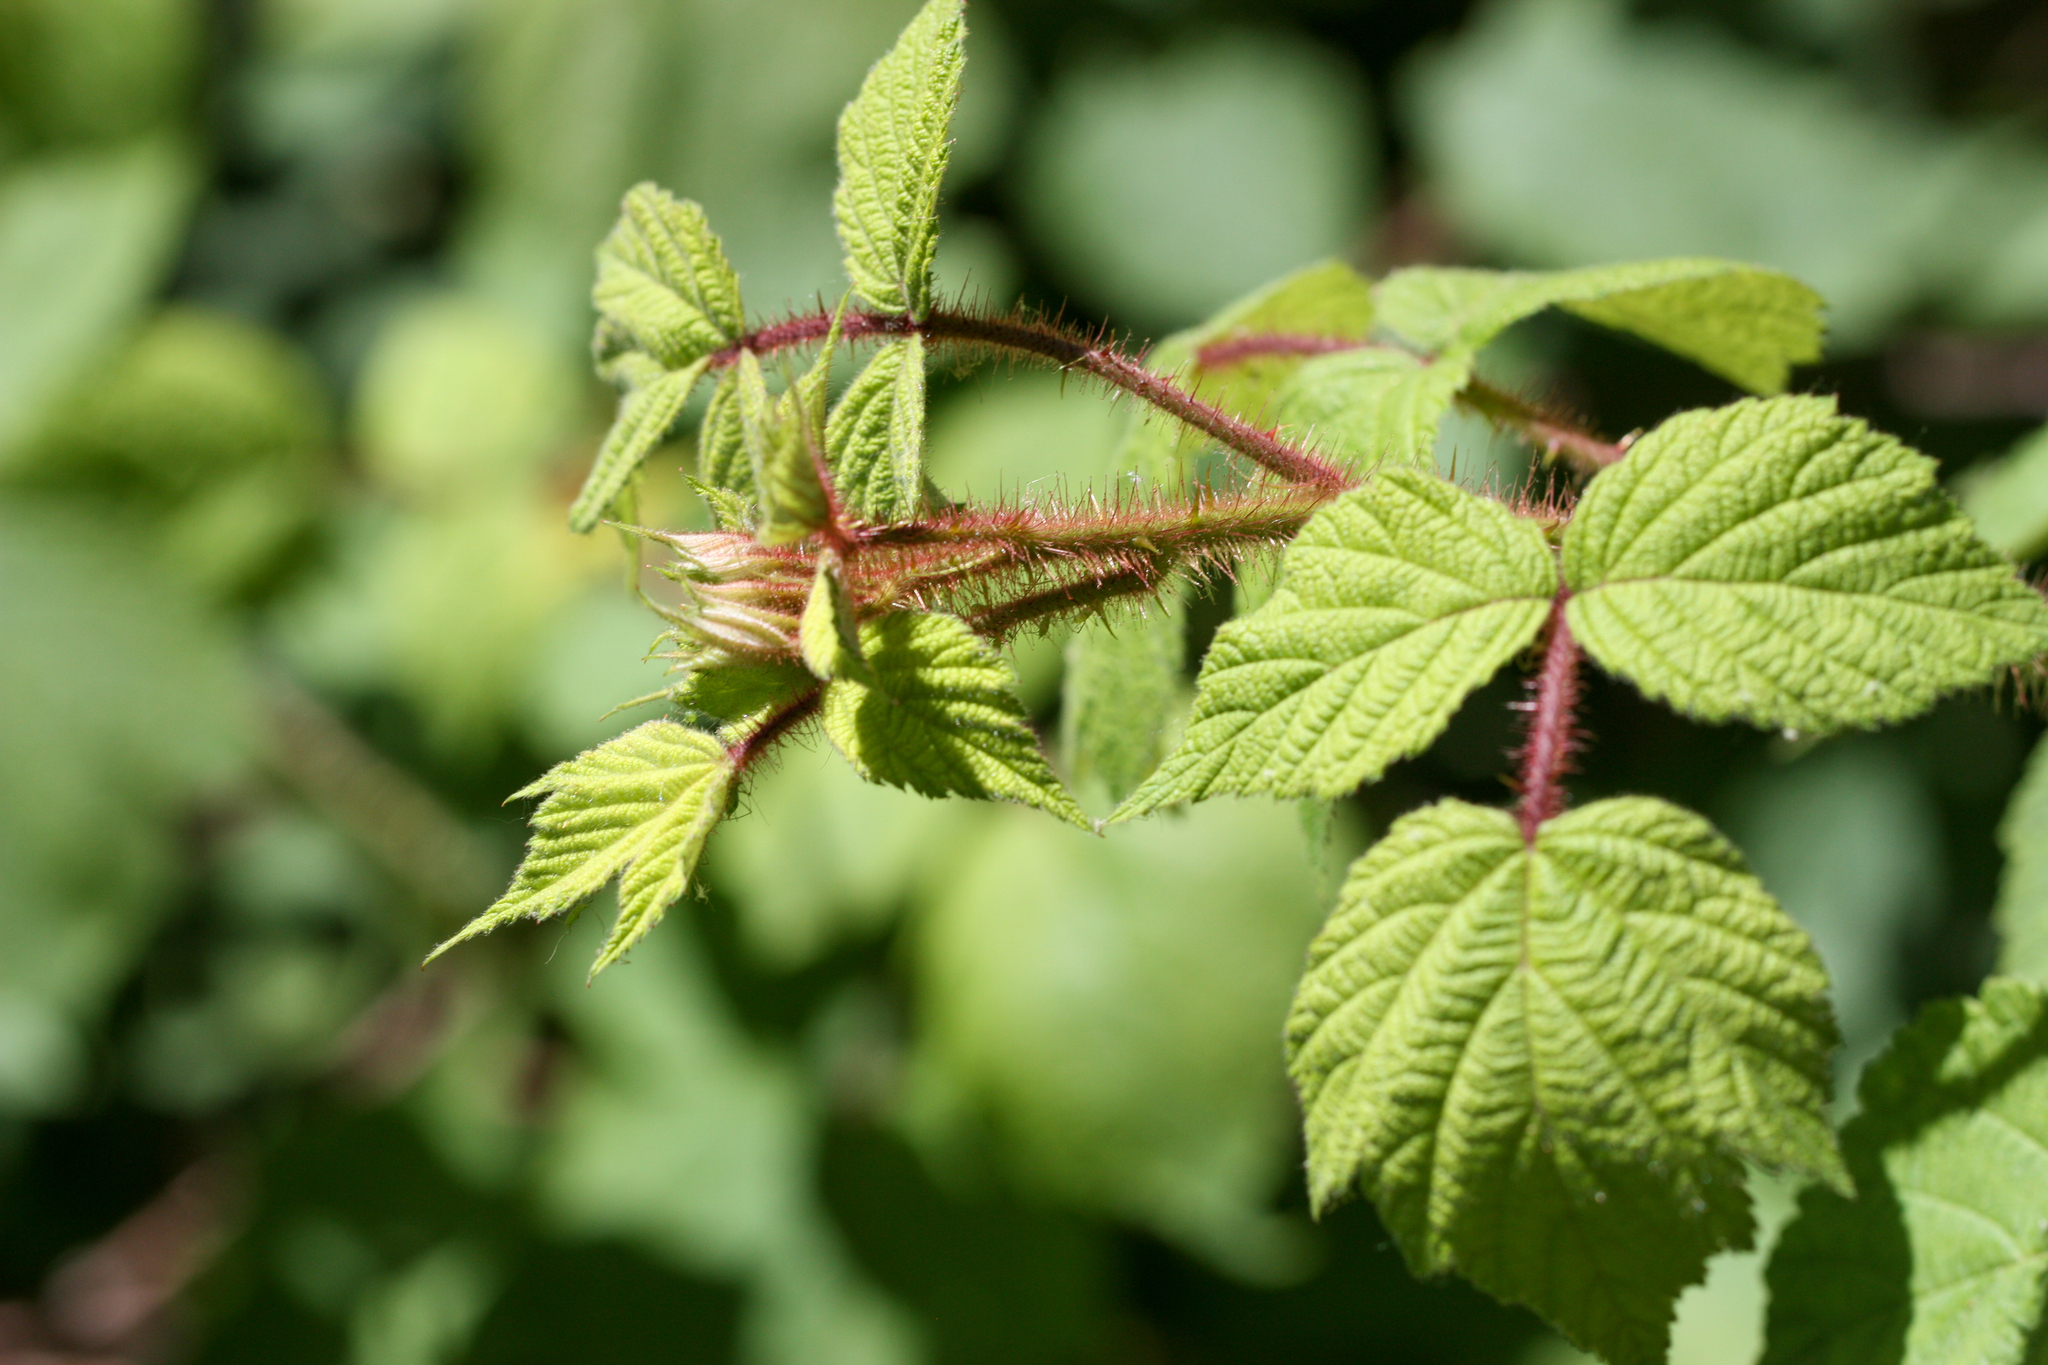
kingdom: Plantae
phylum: Tracheophyta
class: Magnoliopsida
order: Rosales
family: Rosaceae
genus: Rubus
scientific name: Rubus phoenicolasius
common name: Japanese wineberry
